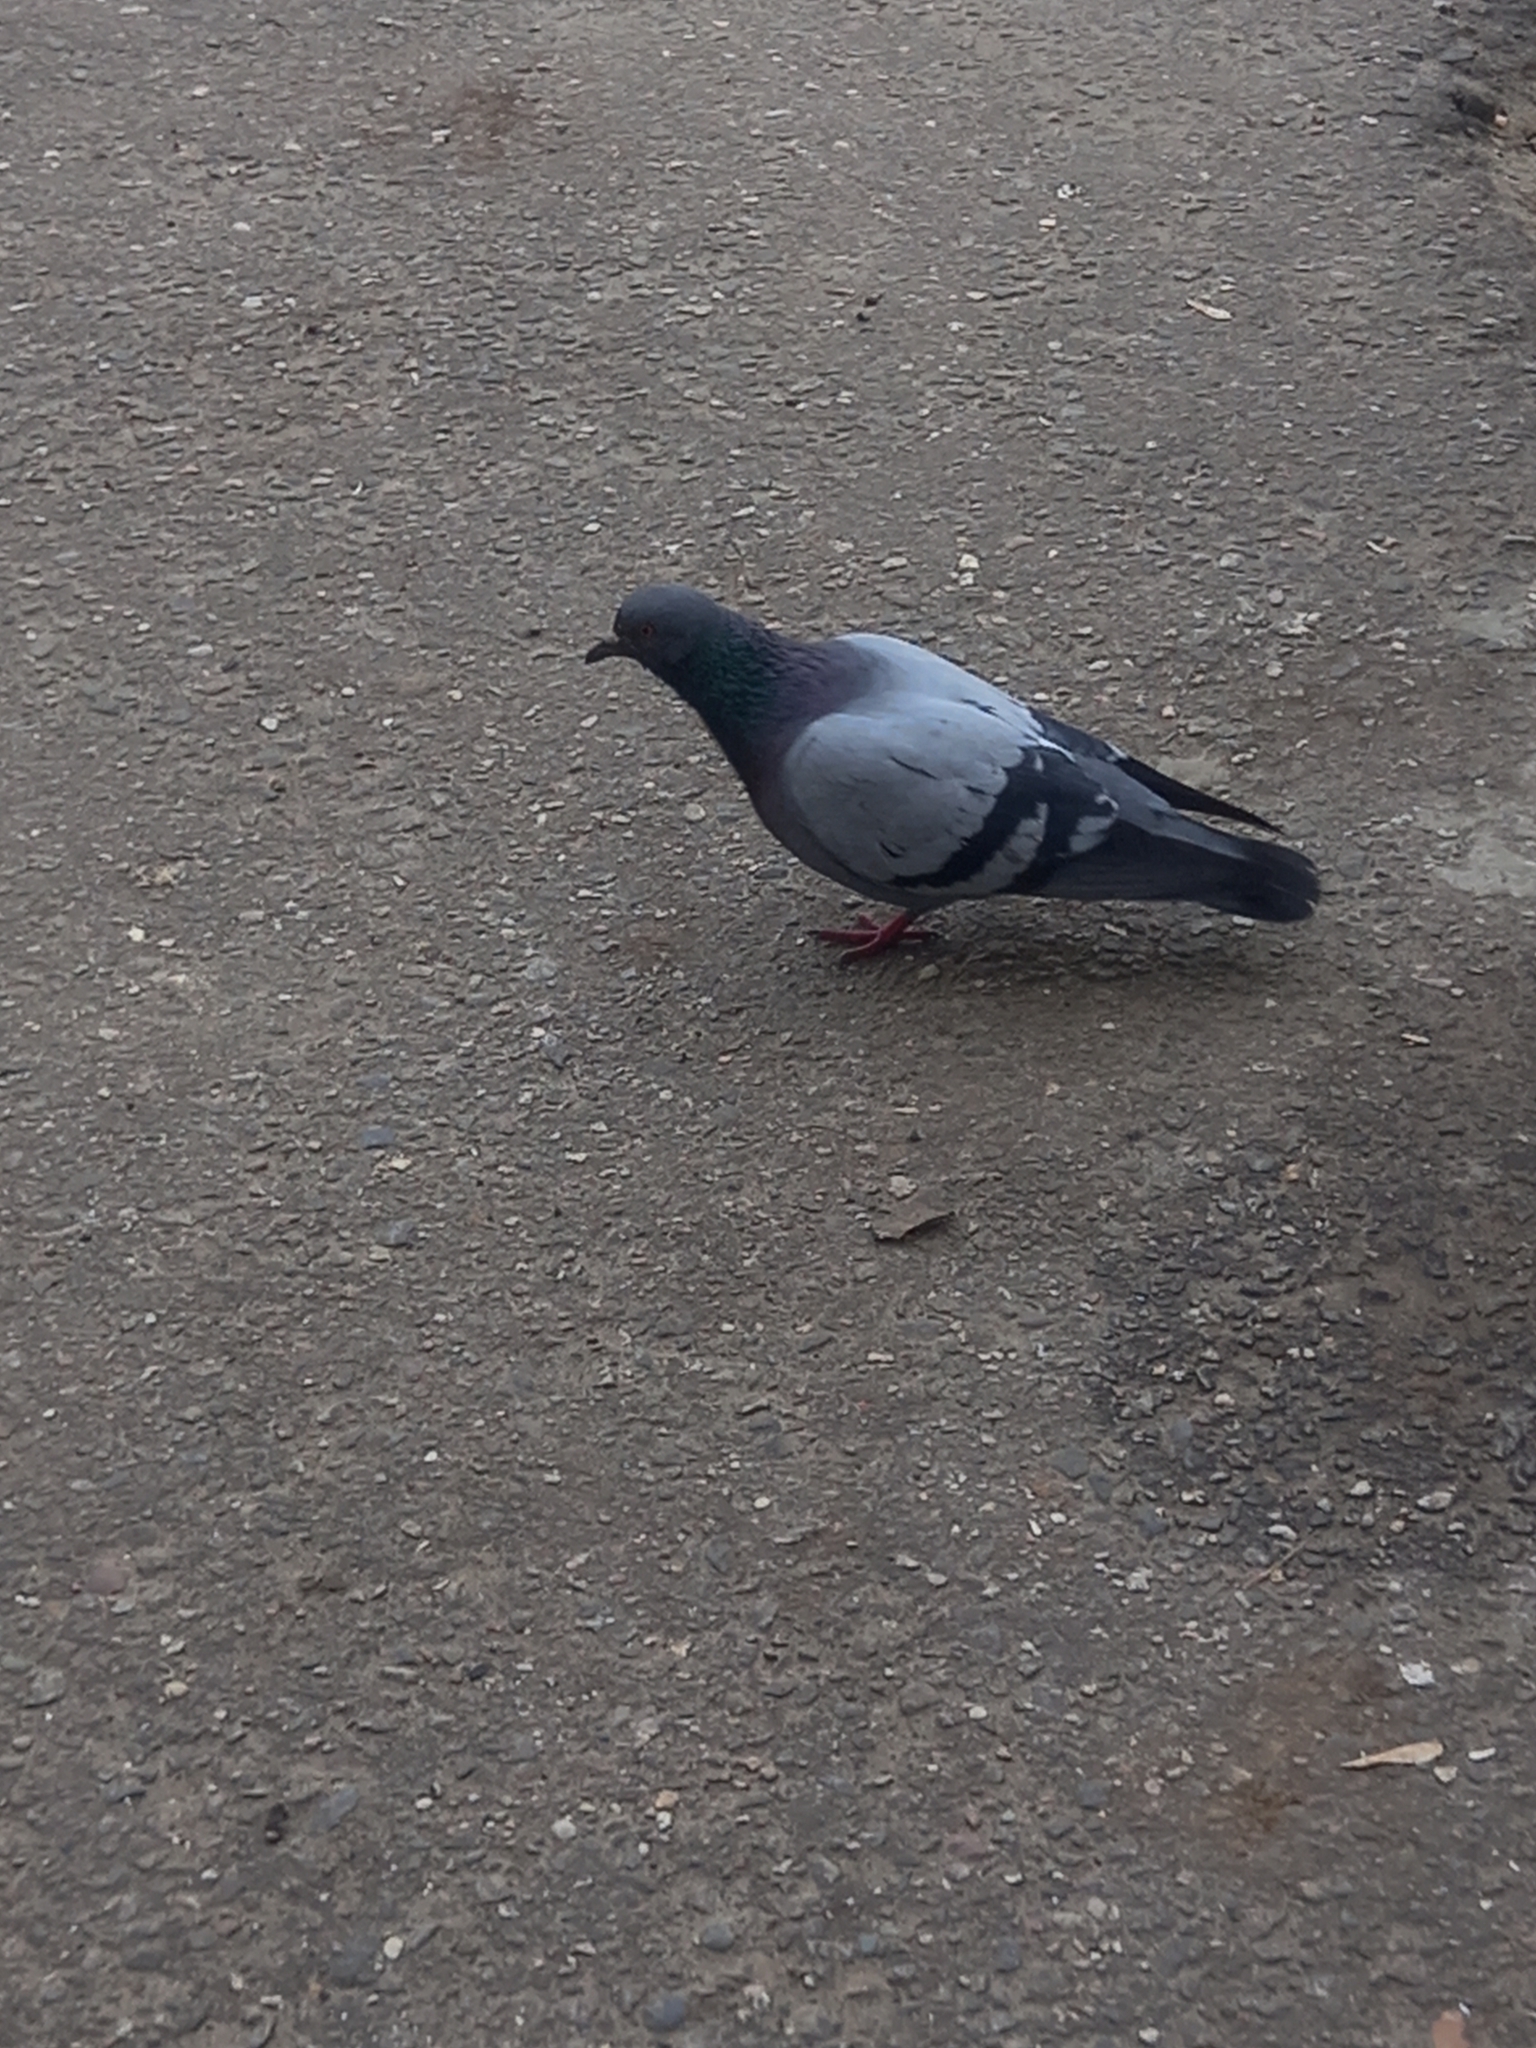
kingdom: Animalia
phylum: Chordata
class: Aves
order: Columbiformes
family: Columbidae
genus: Columba
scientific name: Columba livia
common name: Rock pigeon
